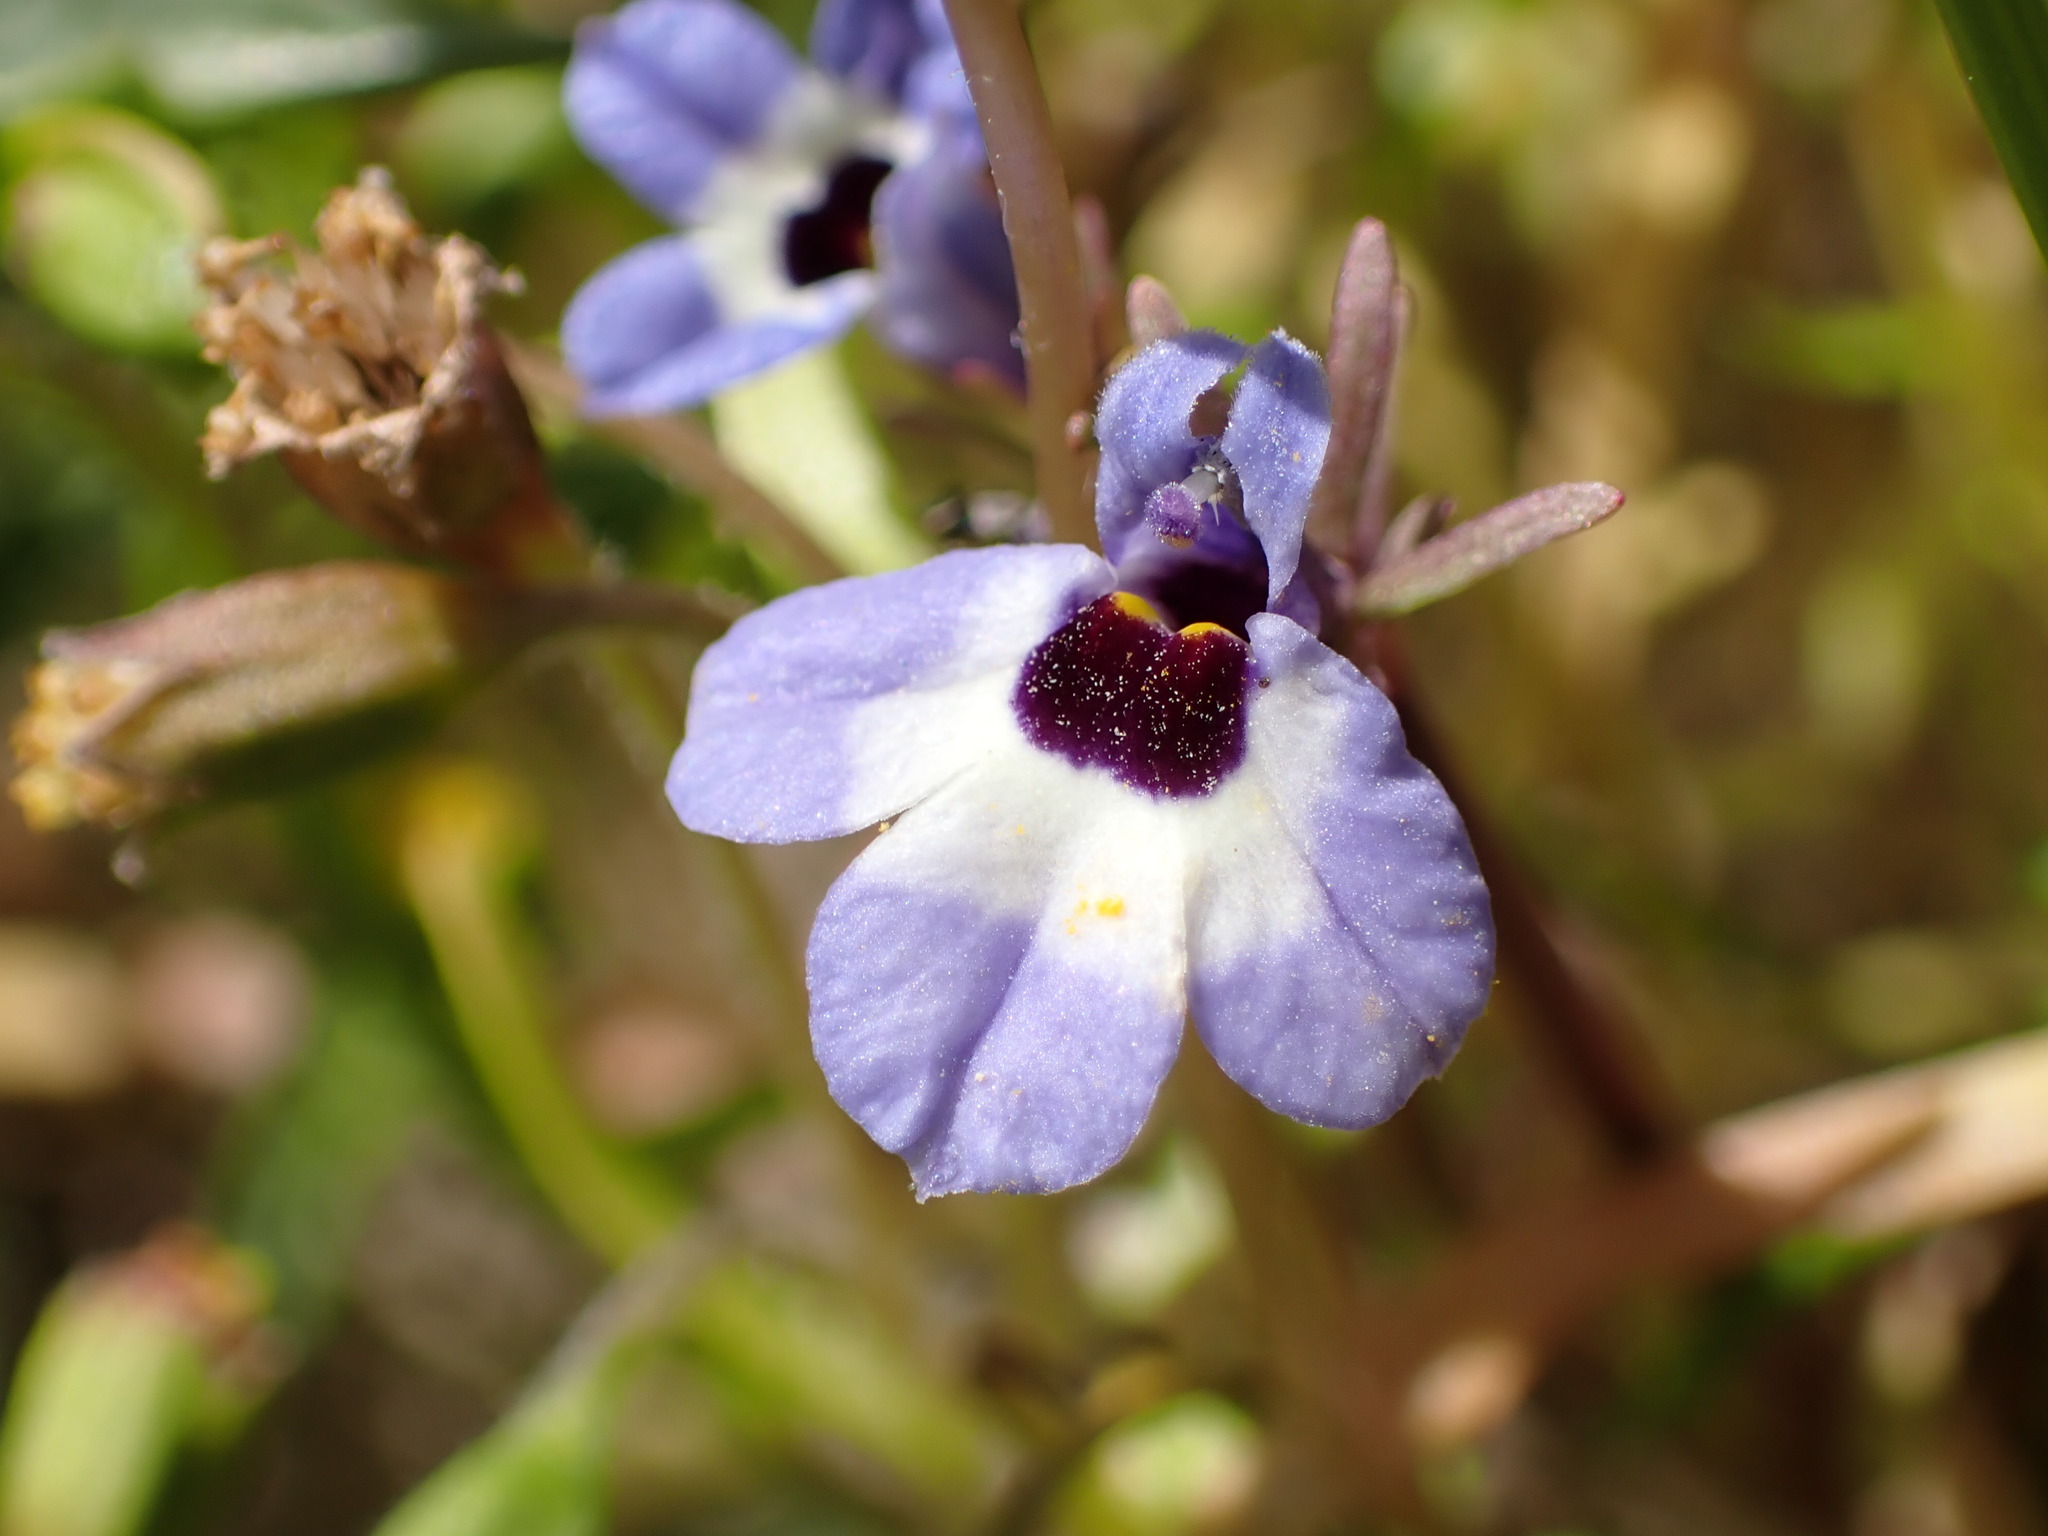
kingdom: Plantae
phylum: Tracheophyta
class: Magnoliopsida
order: Asterales
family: Campanulaceae
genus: Downingia
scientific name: Downingia concolor
